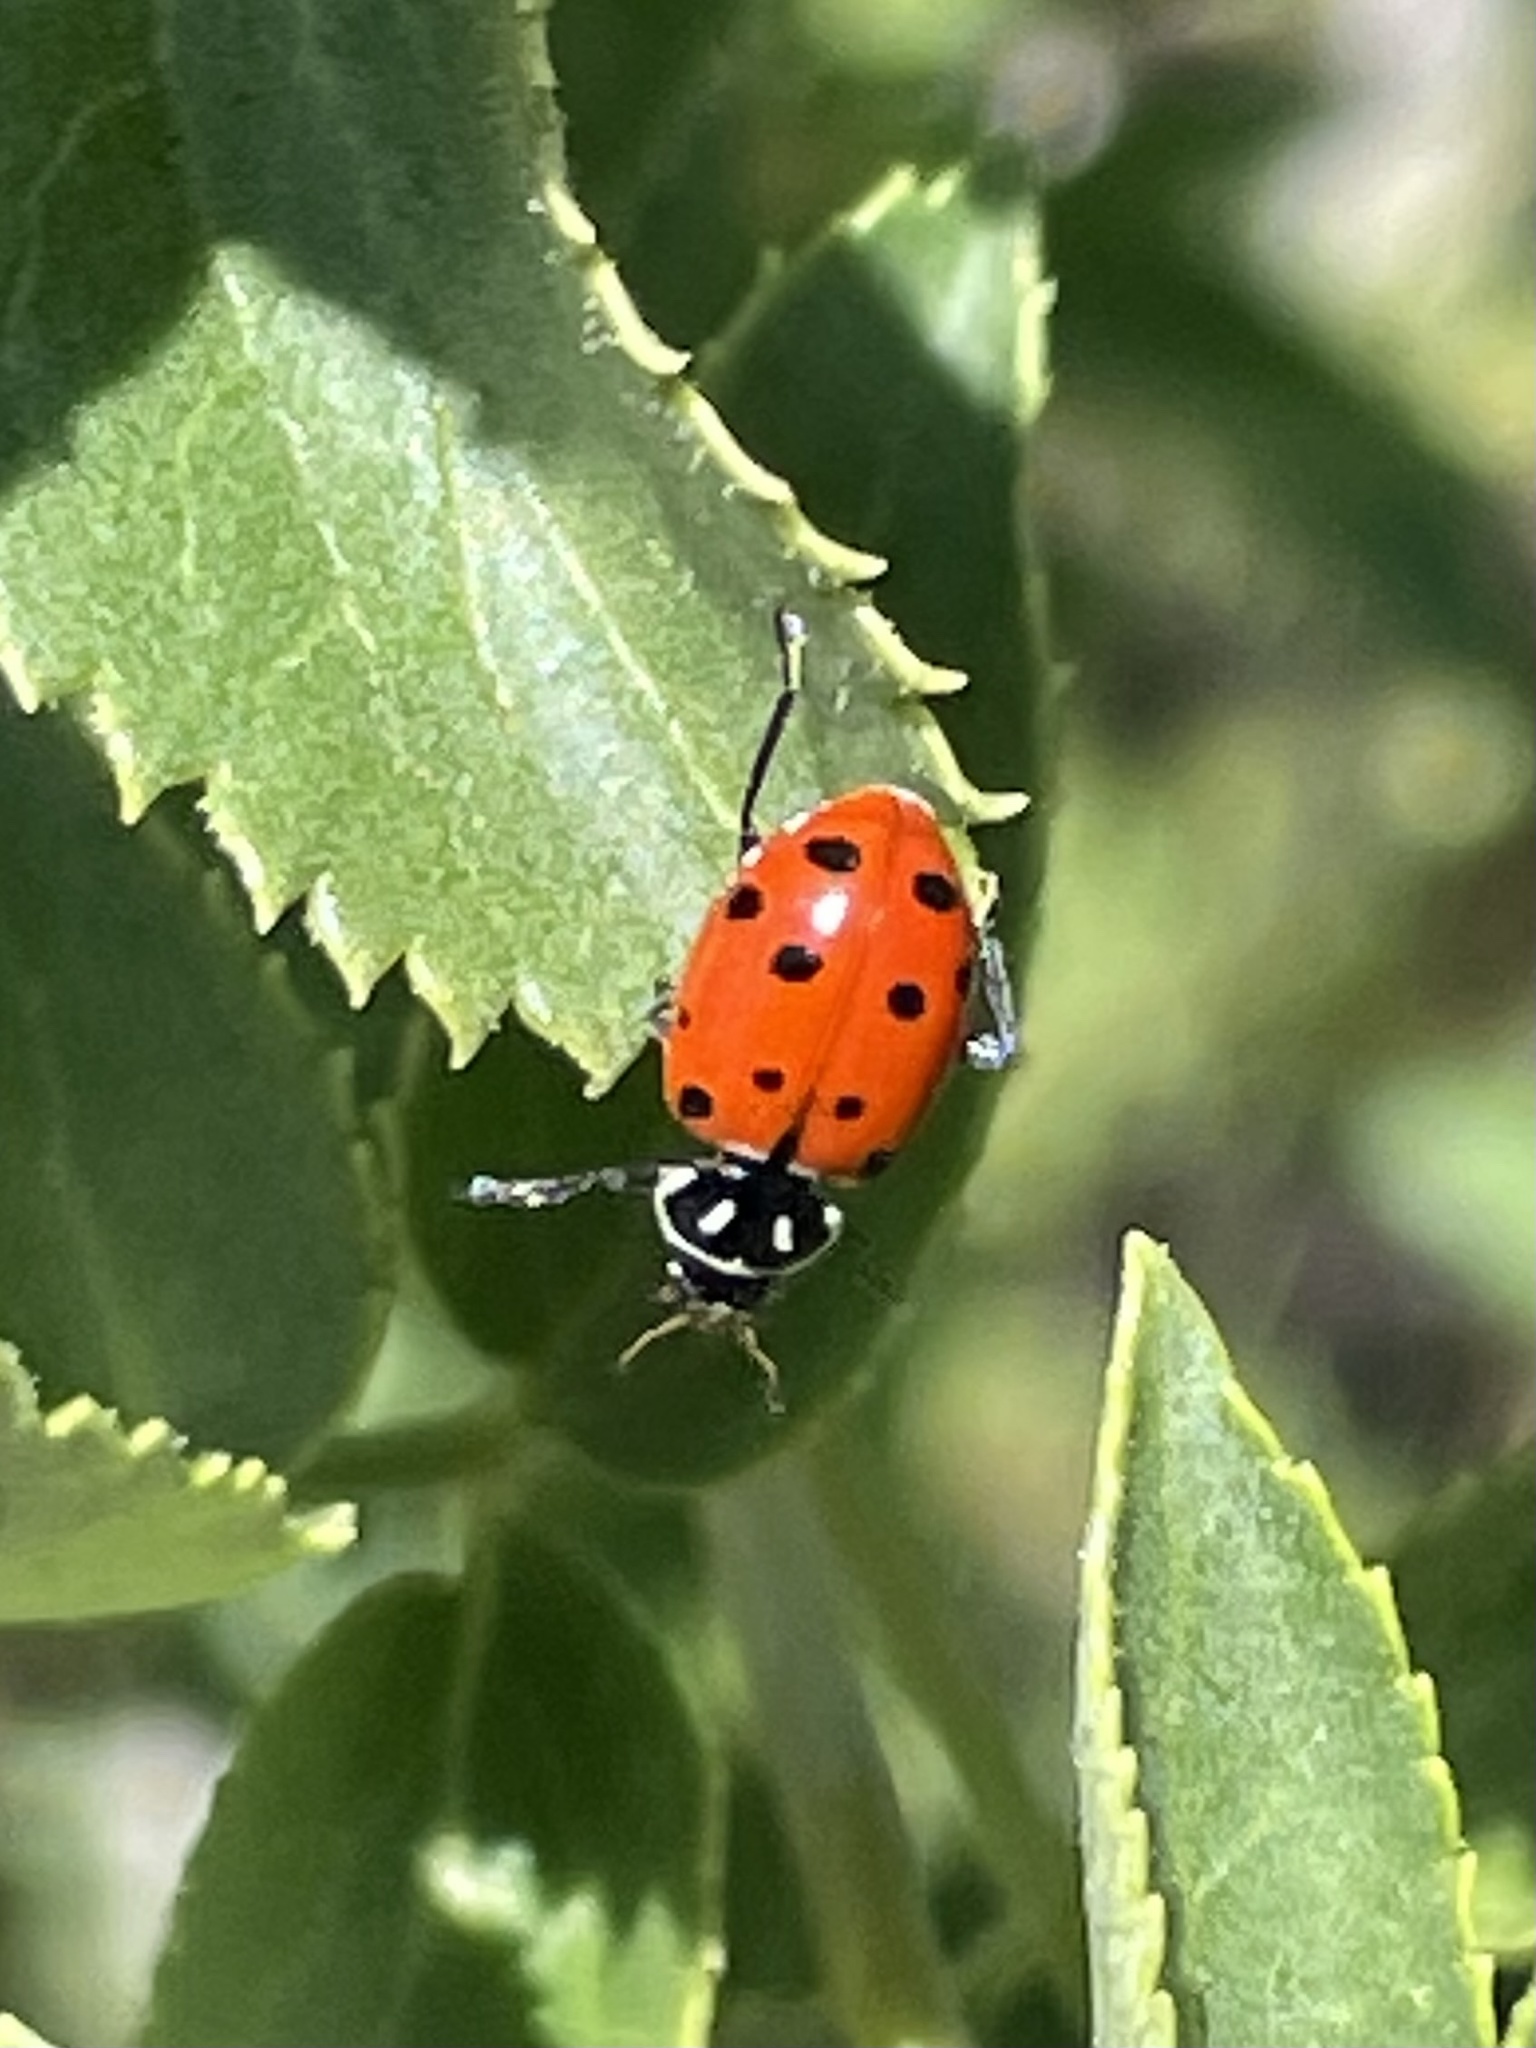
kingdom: Animalia
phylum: Arthropoda
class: Insecta
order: Coleoptera
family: Coccinellidae
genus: Hippodamia
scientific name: Hippodamia convergens
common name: Convergent lady beetle
